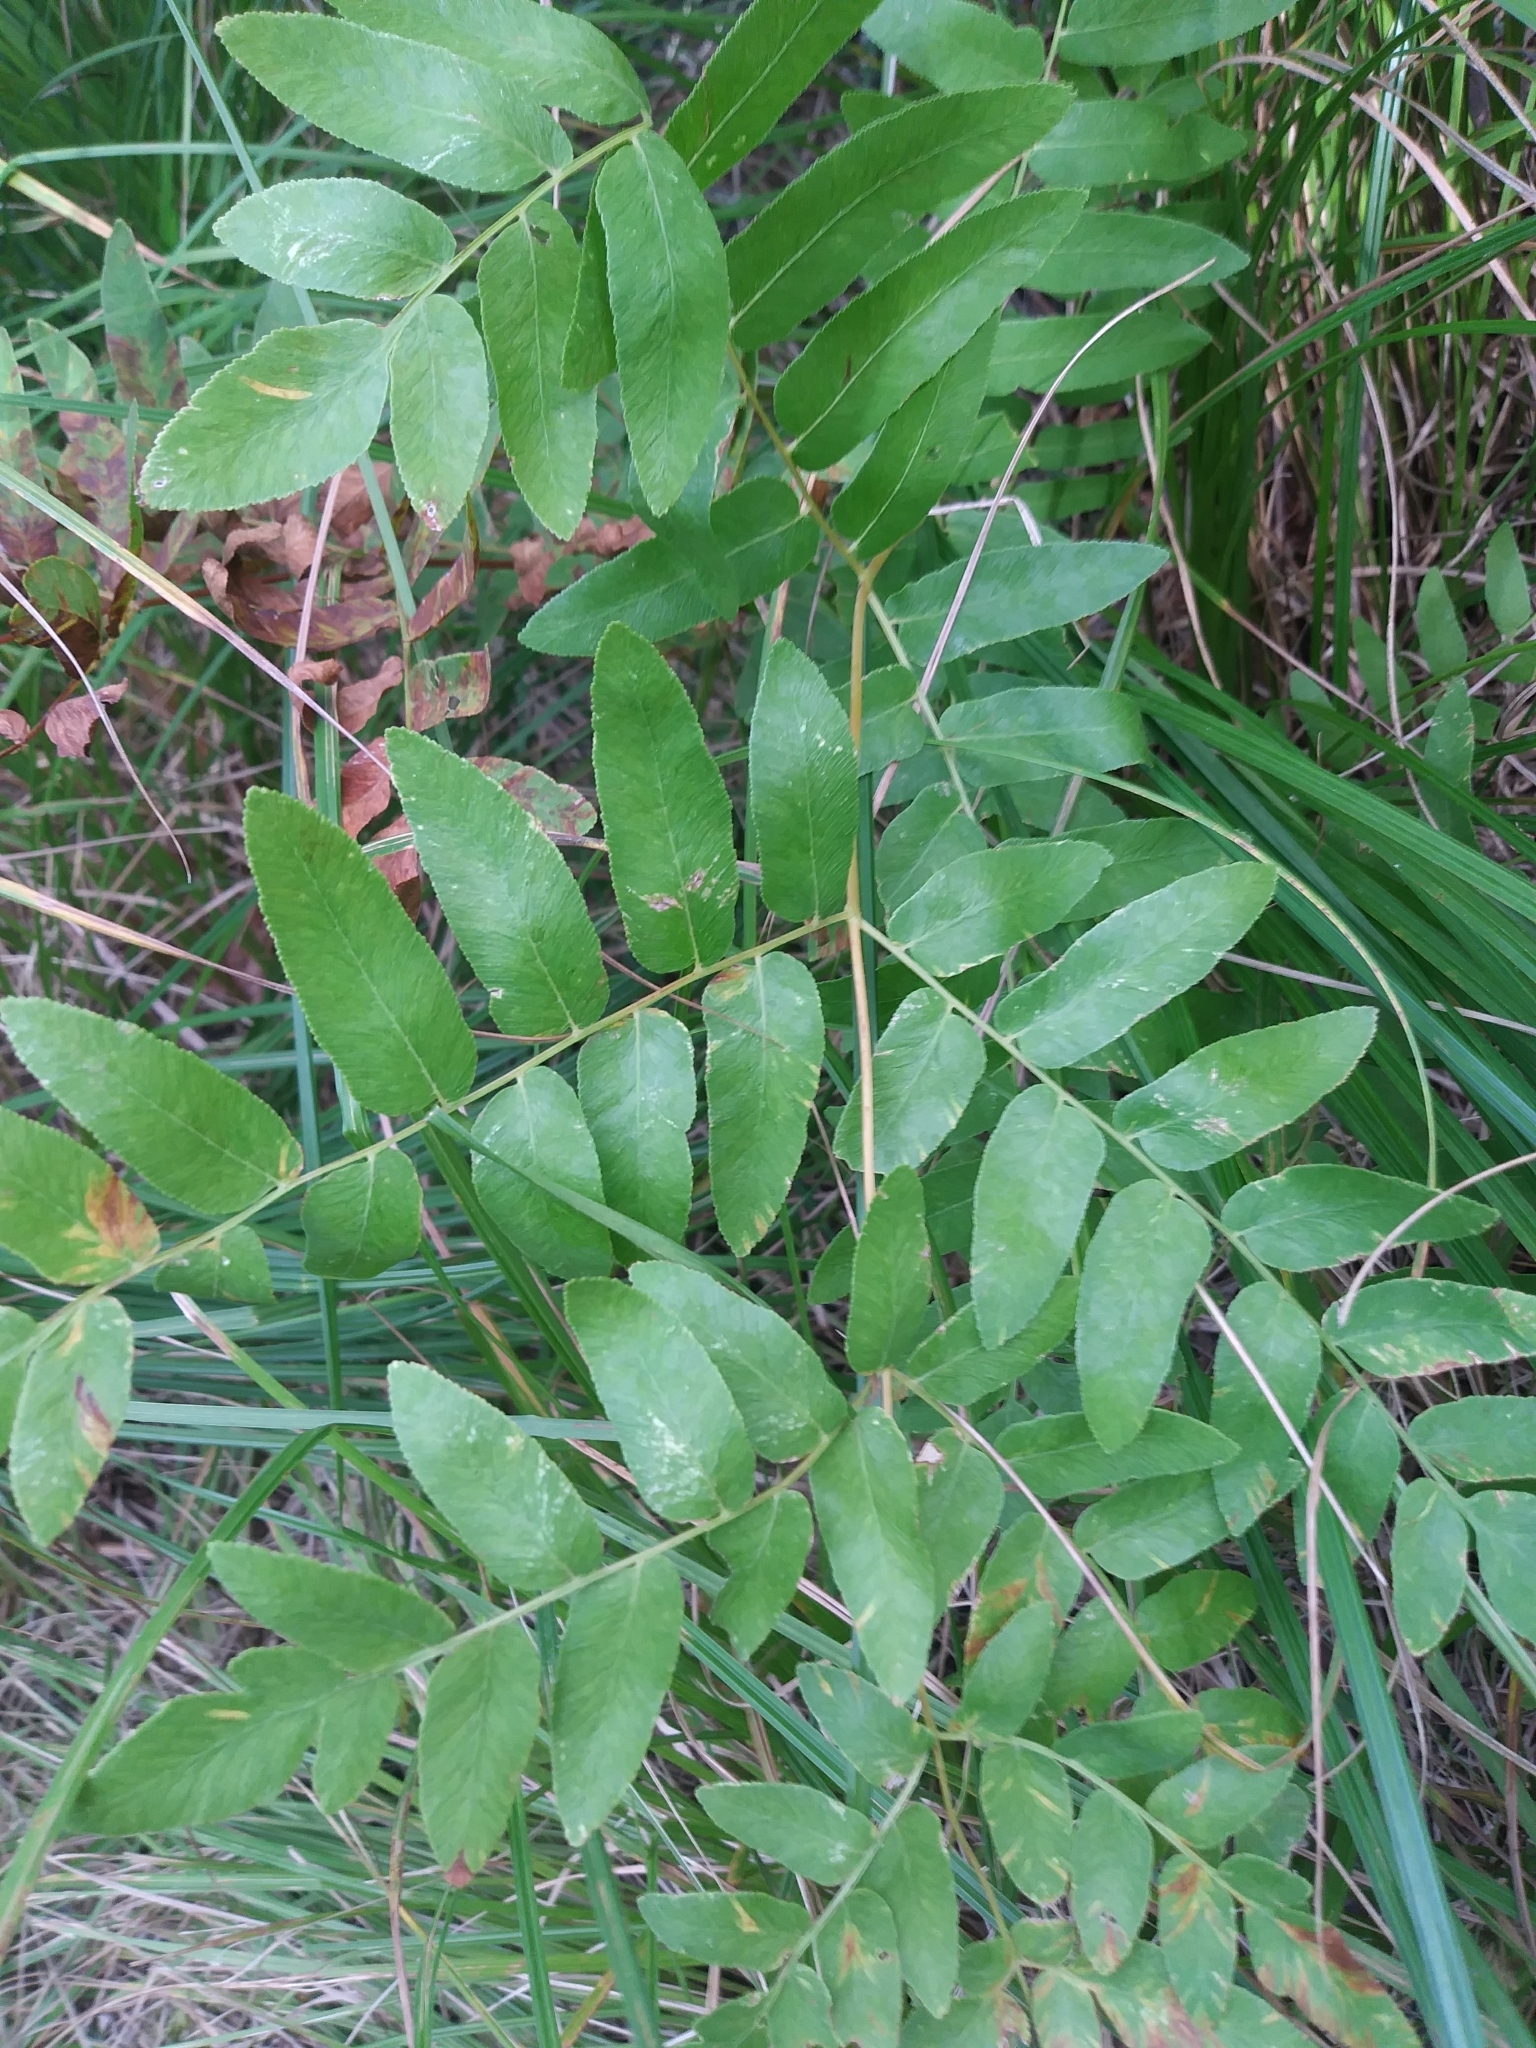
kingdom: Plantae
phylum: Tracheophyta
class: Polypodiopsida
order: Osmundales
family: Osmundaceae
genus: Osmunda
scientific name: Osmunda spectabilis
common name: American royal fern
